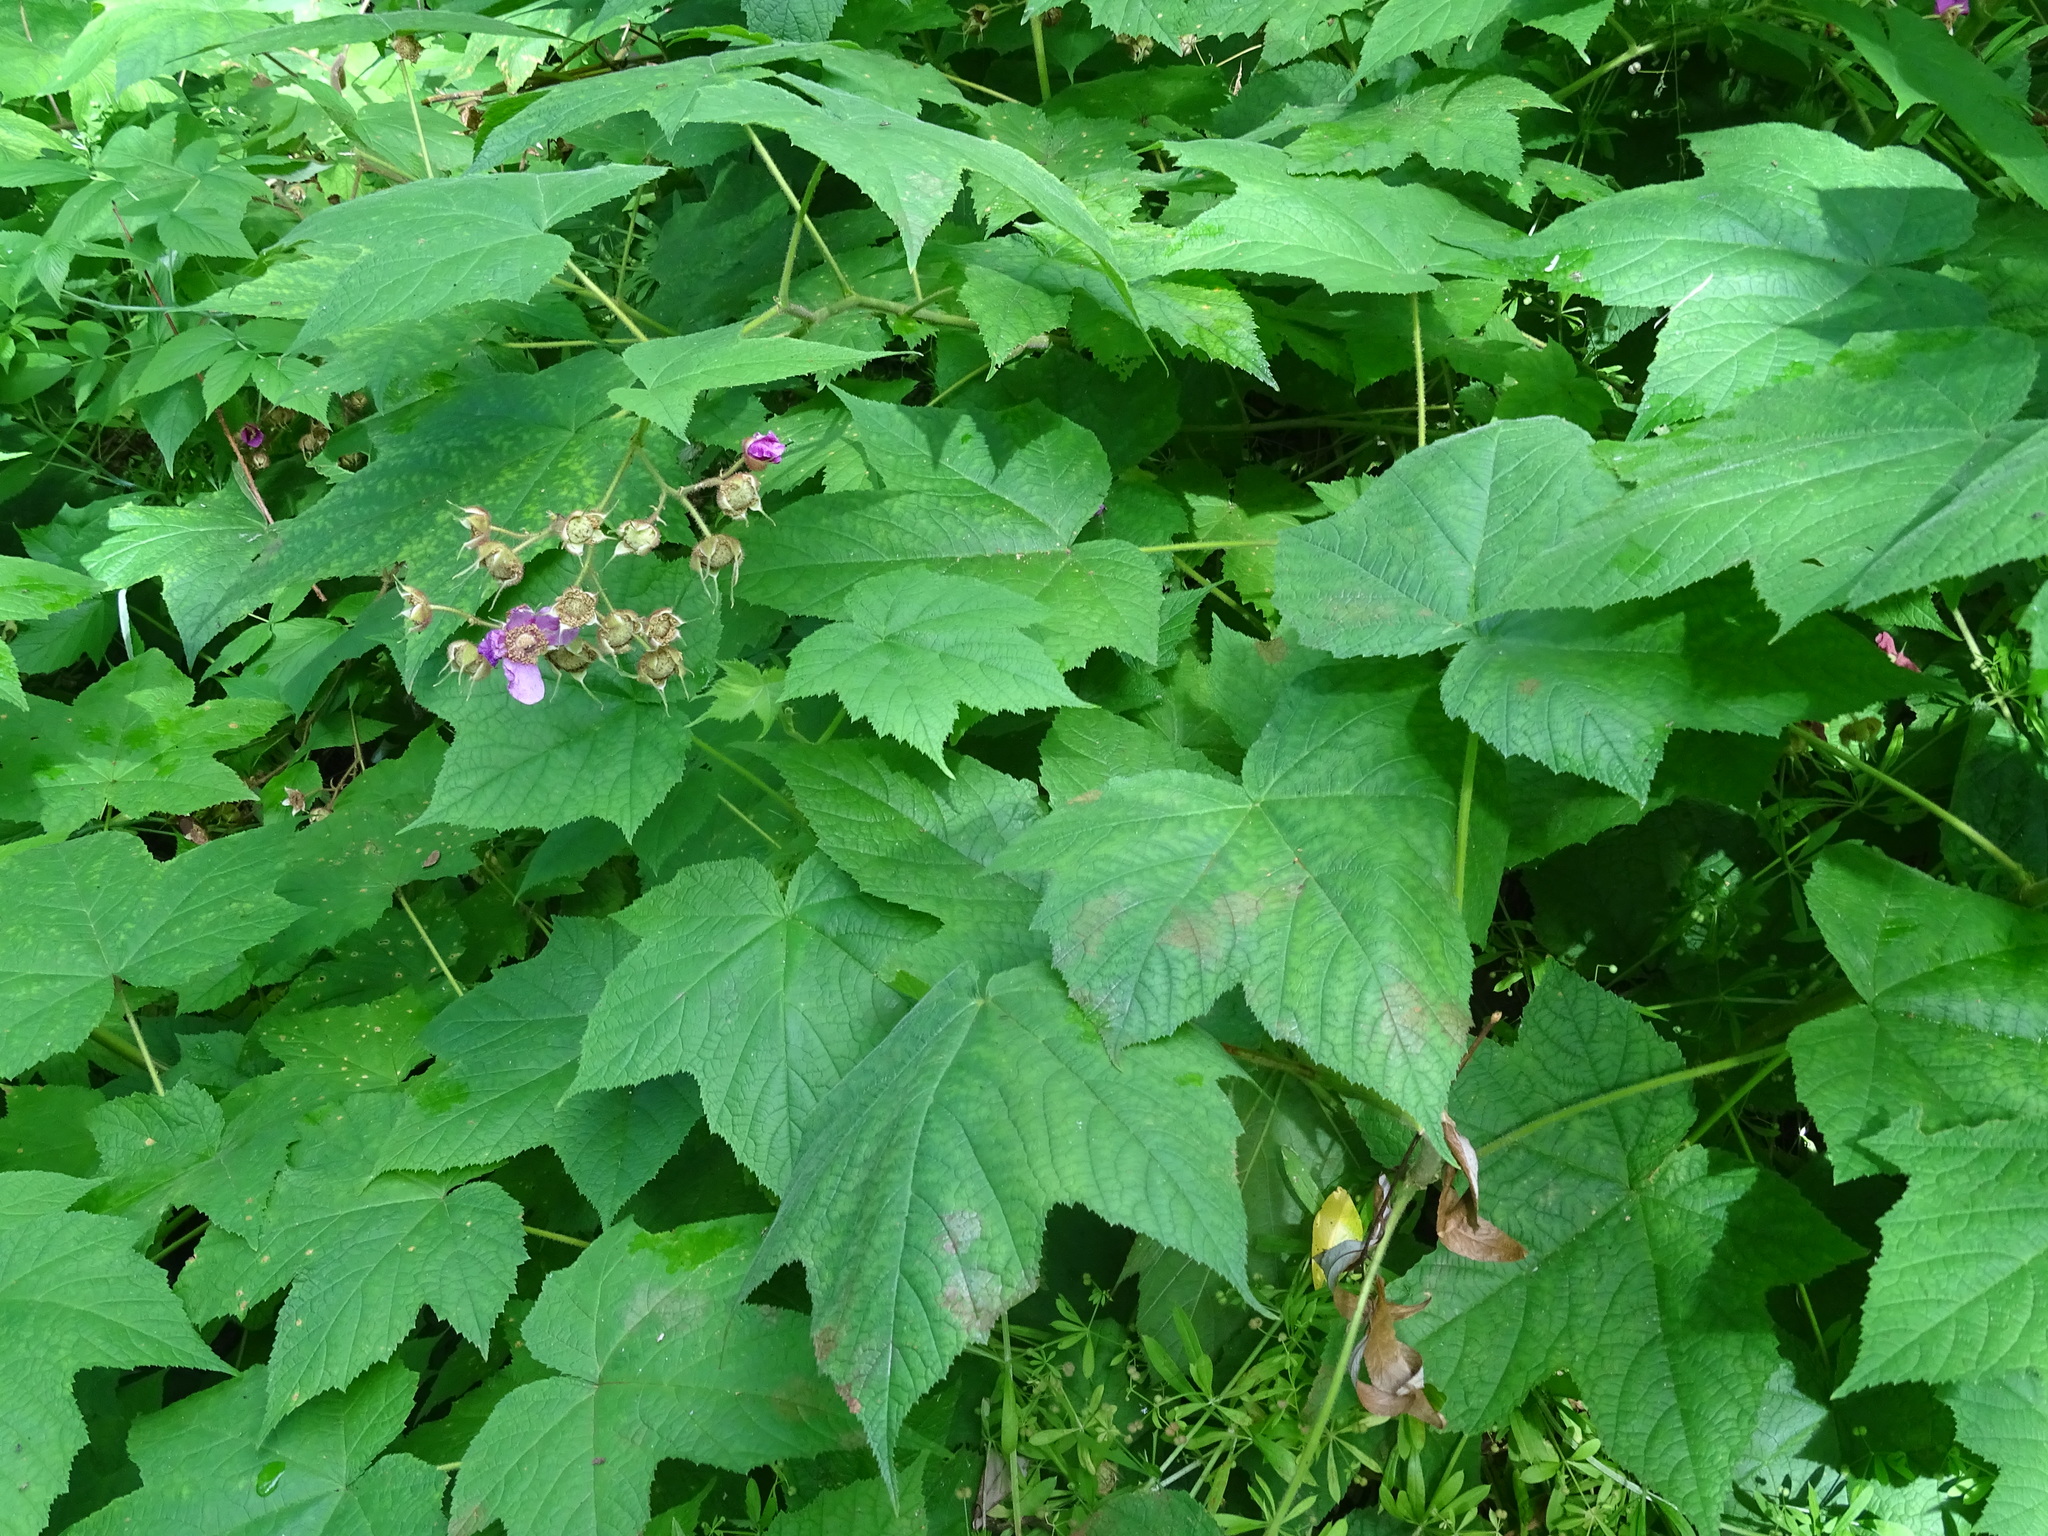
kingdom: Plantae
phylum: Tracheophyta
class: Magnoliopsida
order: Rosales
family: Rosaceae
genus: Rubus
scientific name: Rubus odoratus
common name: Purple-flowered raspberry
